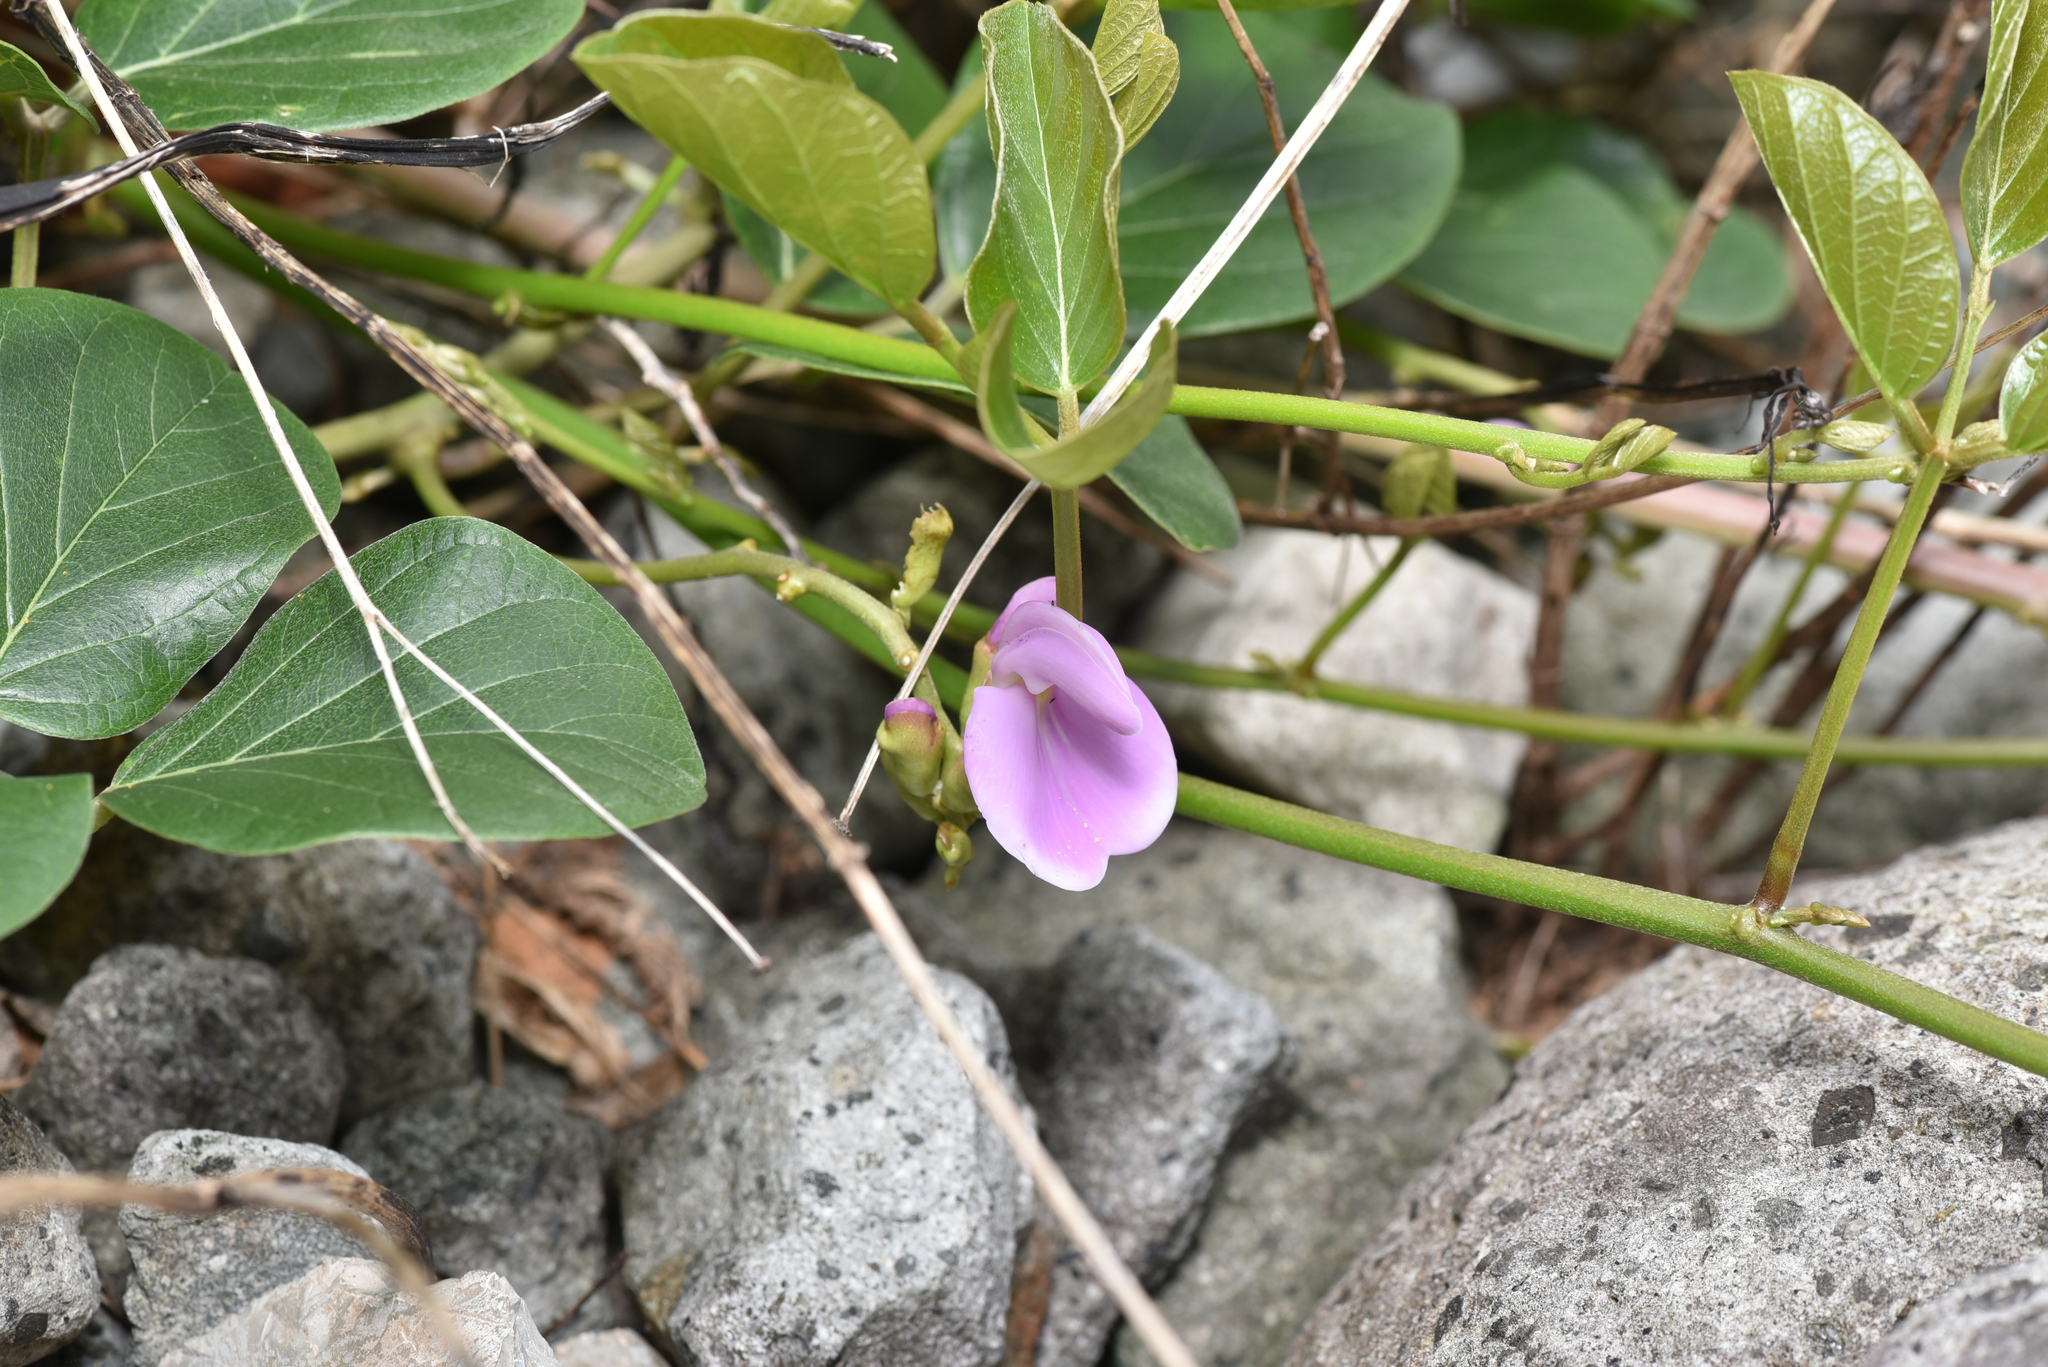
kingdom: Plantae
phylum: Tracheophyta
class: Magnoliopsida
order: Fabales
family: Fabaceae
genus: Canavalia
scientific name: Canavalia lineata
